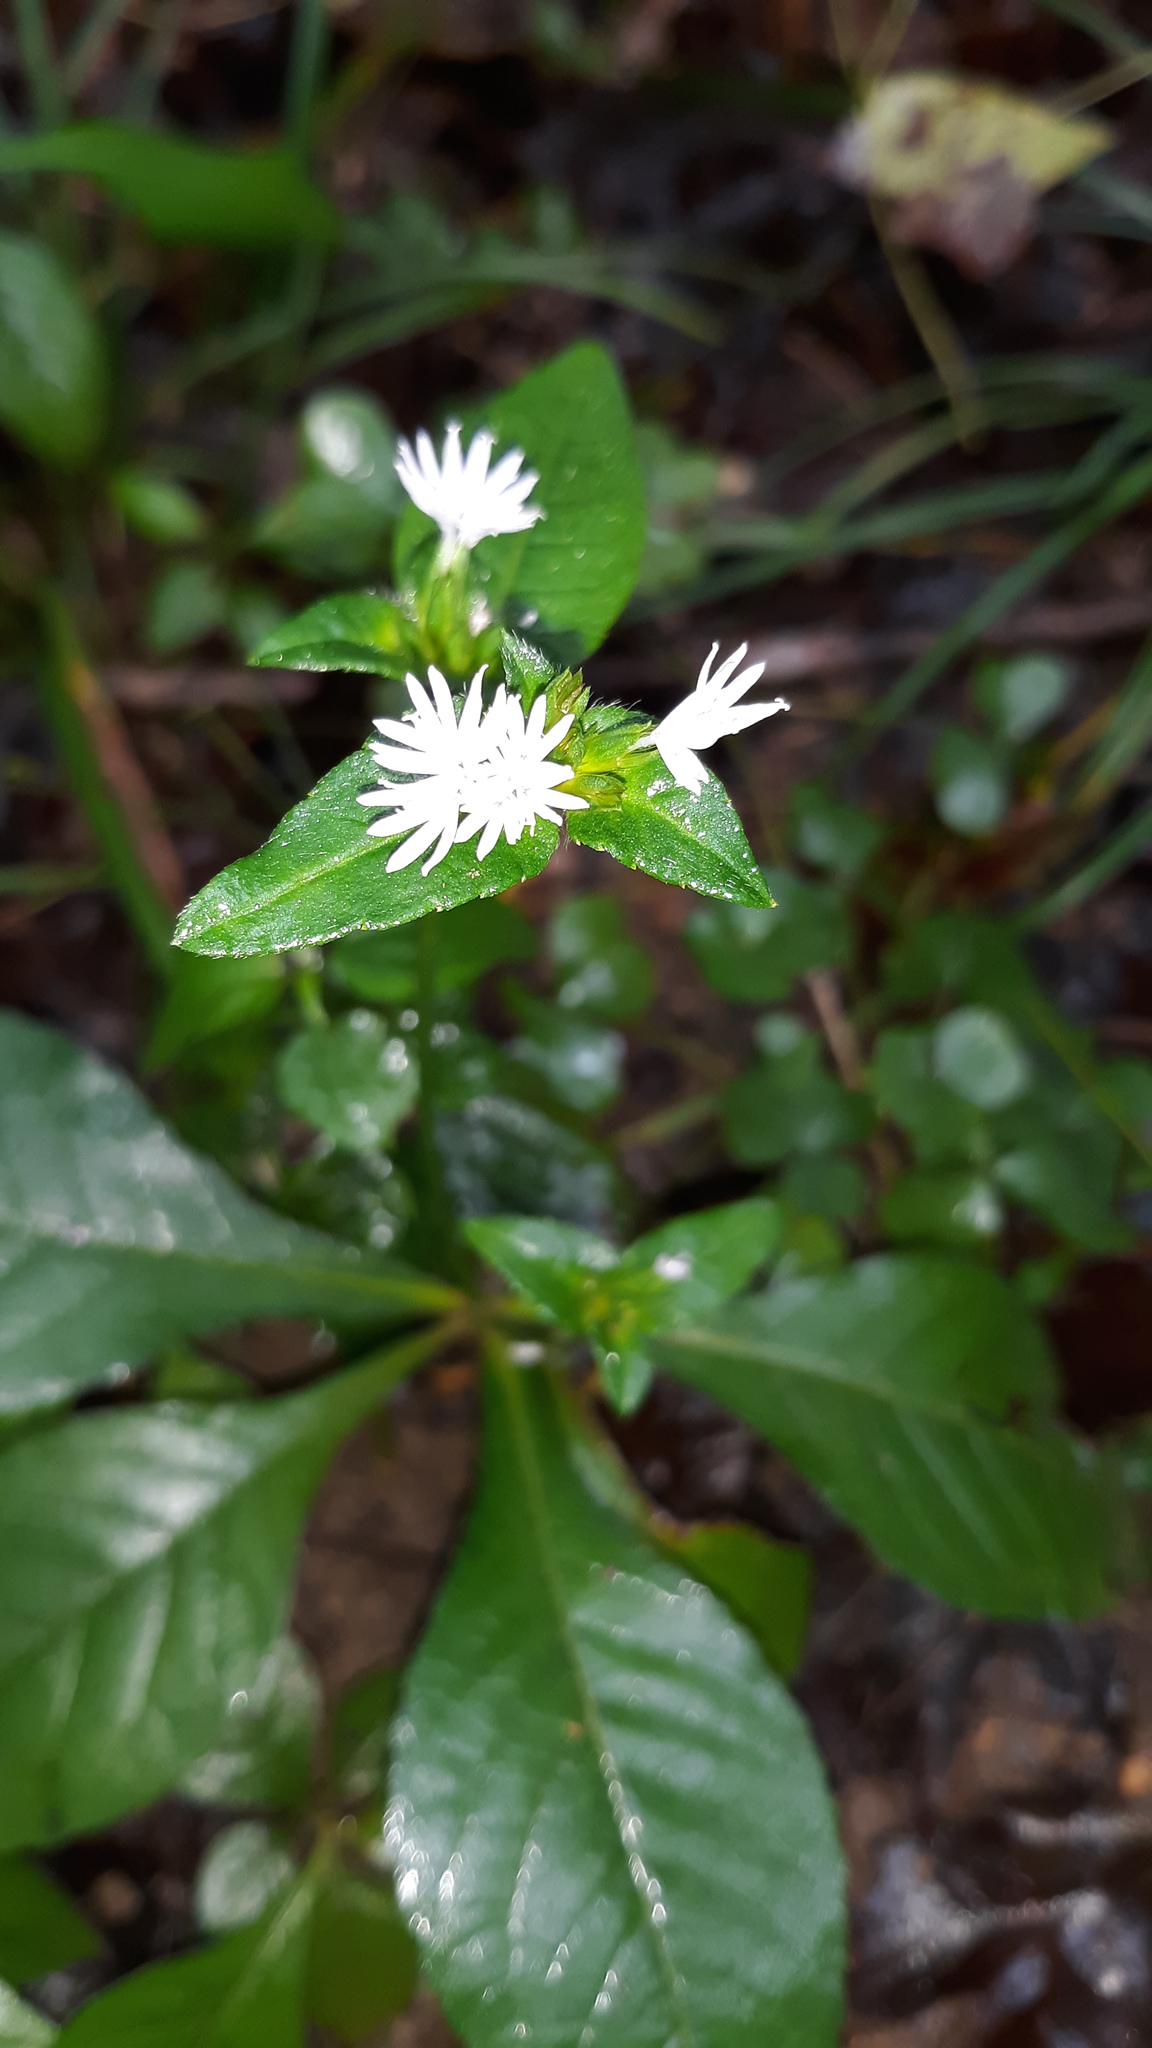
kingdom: Plantae
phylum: Tracheophyta
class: Magnoliopsida
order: Asterales
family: Asteraceae
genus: Elephantopus
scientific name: Elephantopus carolinianus
